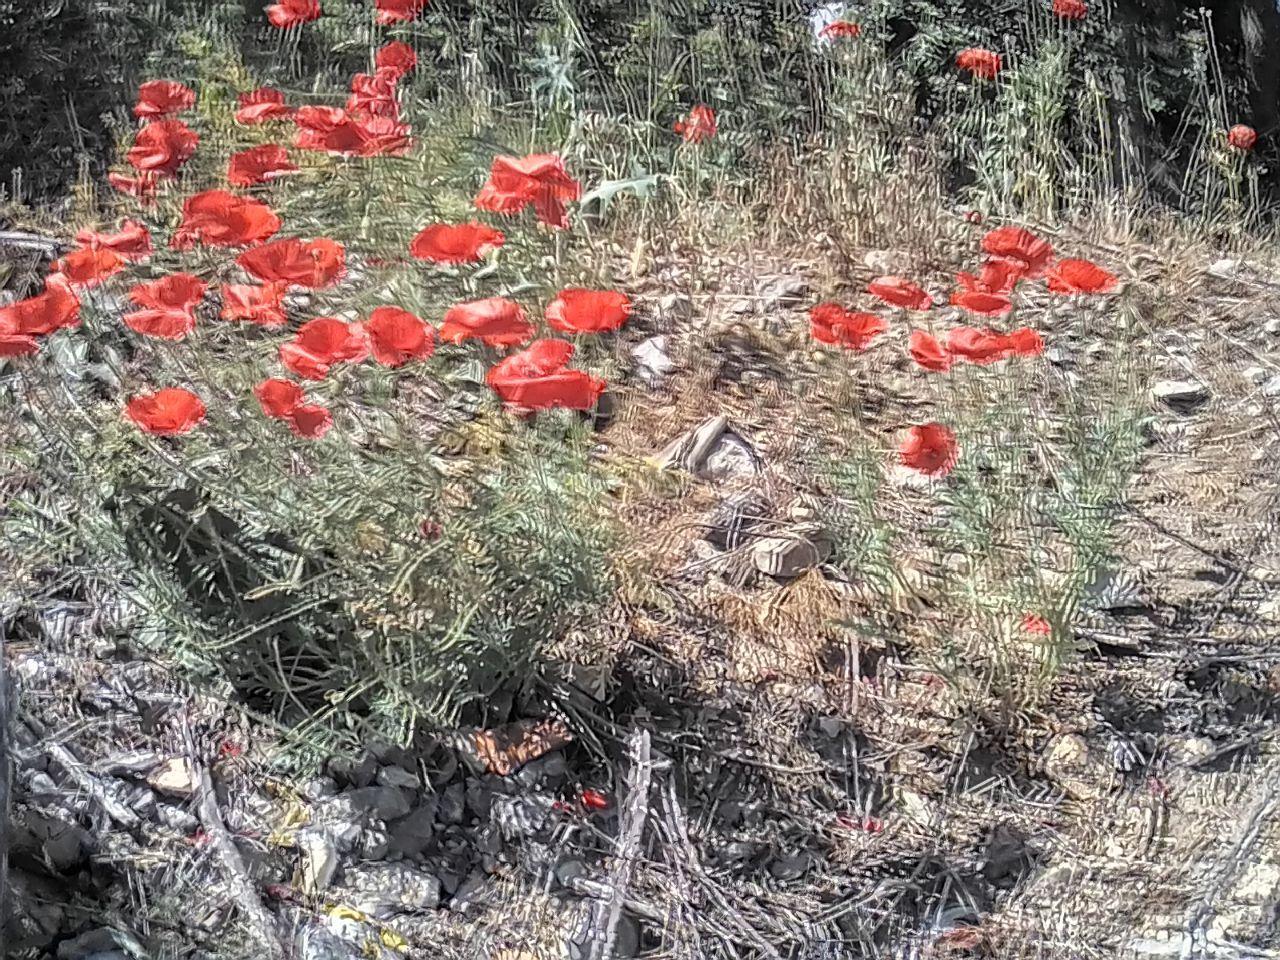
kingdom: Plantae
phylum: Tracheophyta
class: Magnoliopsida
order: Ranunculales
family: Papaveraceae
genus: Papaver
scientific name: Papaver rhoeas
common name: Corn poppy
